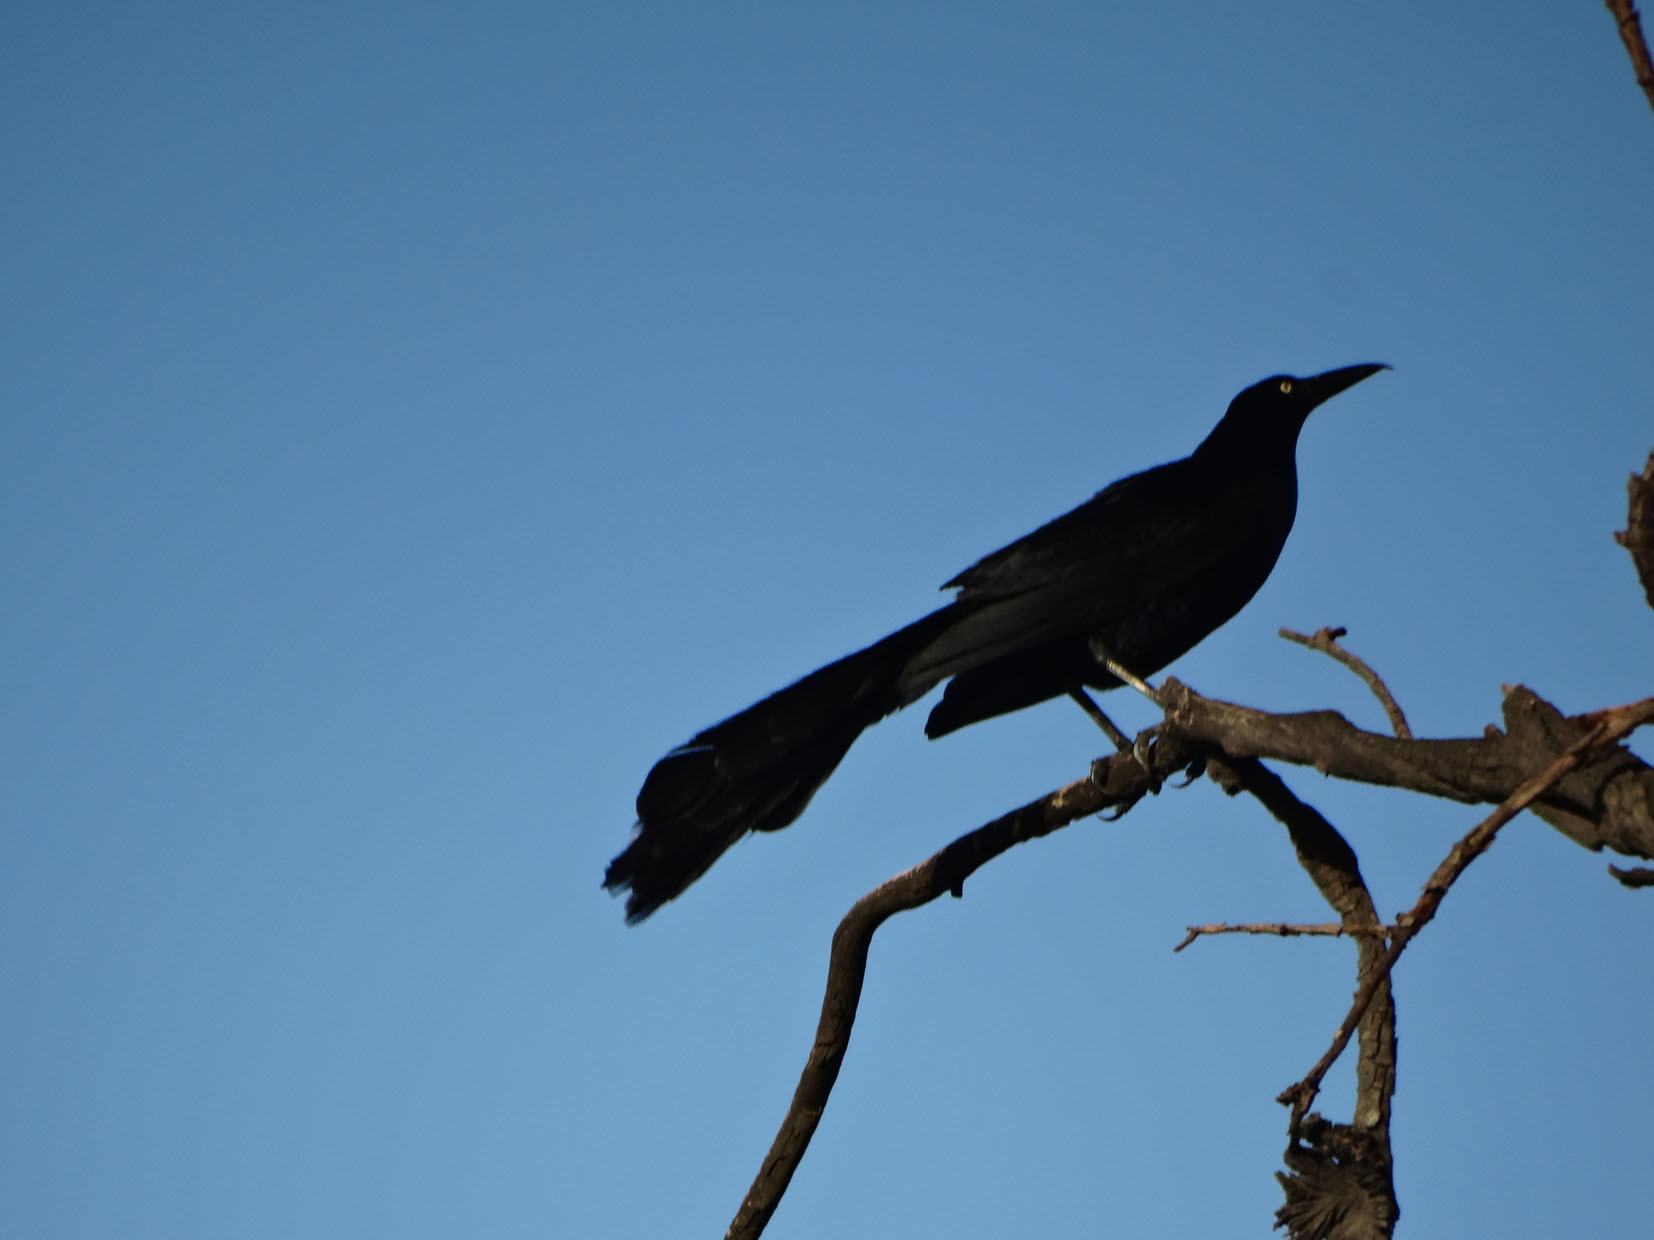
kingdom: Animalia
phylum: Chordata
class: Aves
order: Passeriformes
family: Icteridae
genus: Quiscalus
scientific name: Quiscalus mexicanus
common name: Great-tailed grackle
